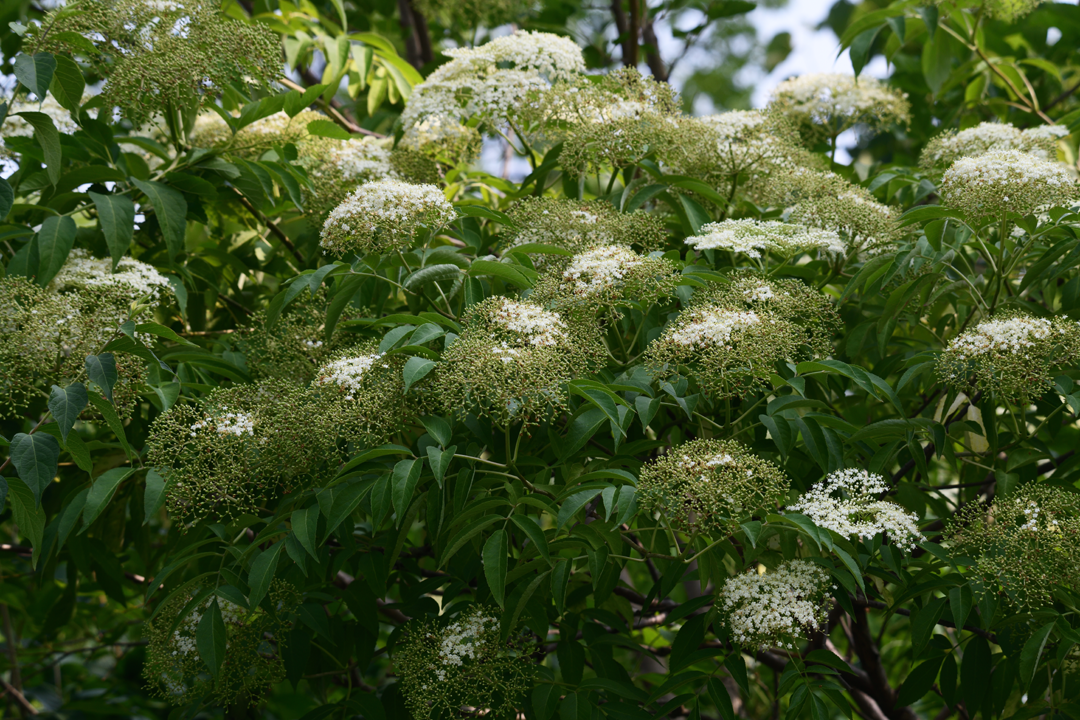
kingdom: Plantae
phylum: Tracheophyta
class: Magnoliopsida
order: Dipsacales
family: Viburnaceae
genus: Sambucus
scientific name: Sambucus canadensis
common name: American elder
